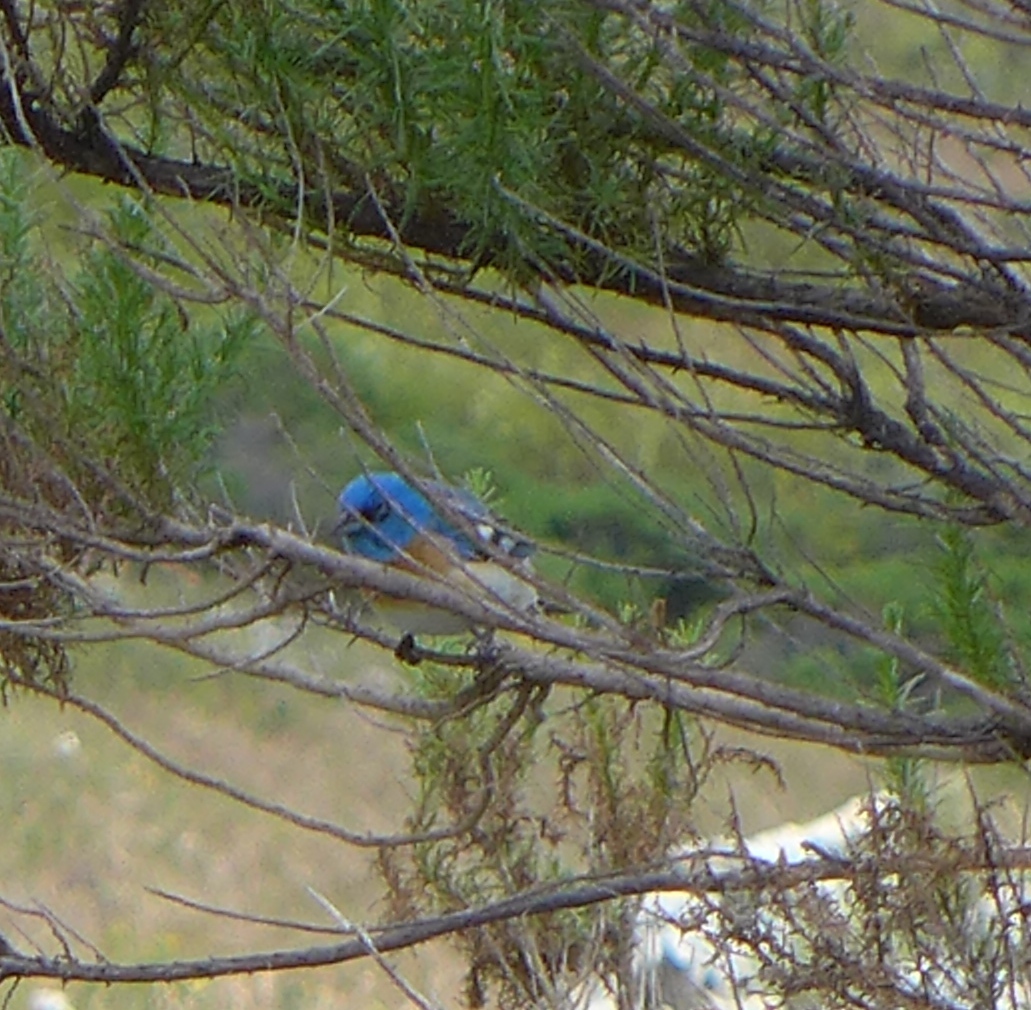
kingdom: Animalia
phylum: Chordata
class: Aves
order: Passeriformes
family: Cardinalidae
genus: Passerina
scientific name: Passerina amoena
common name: Lazuli bunting
